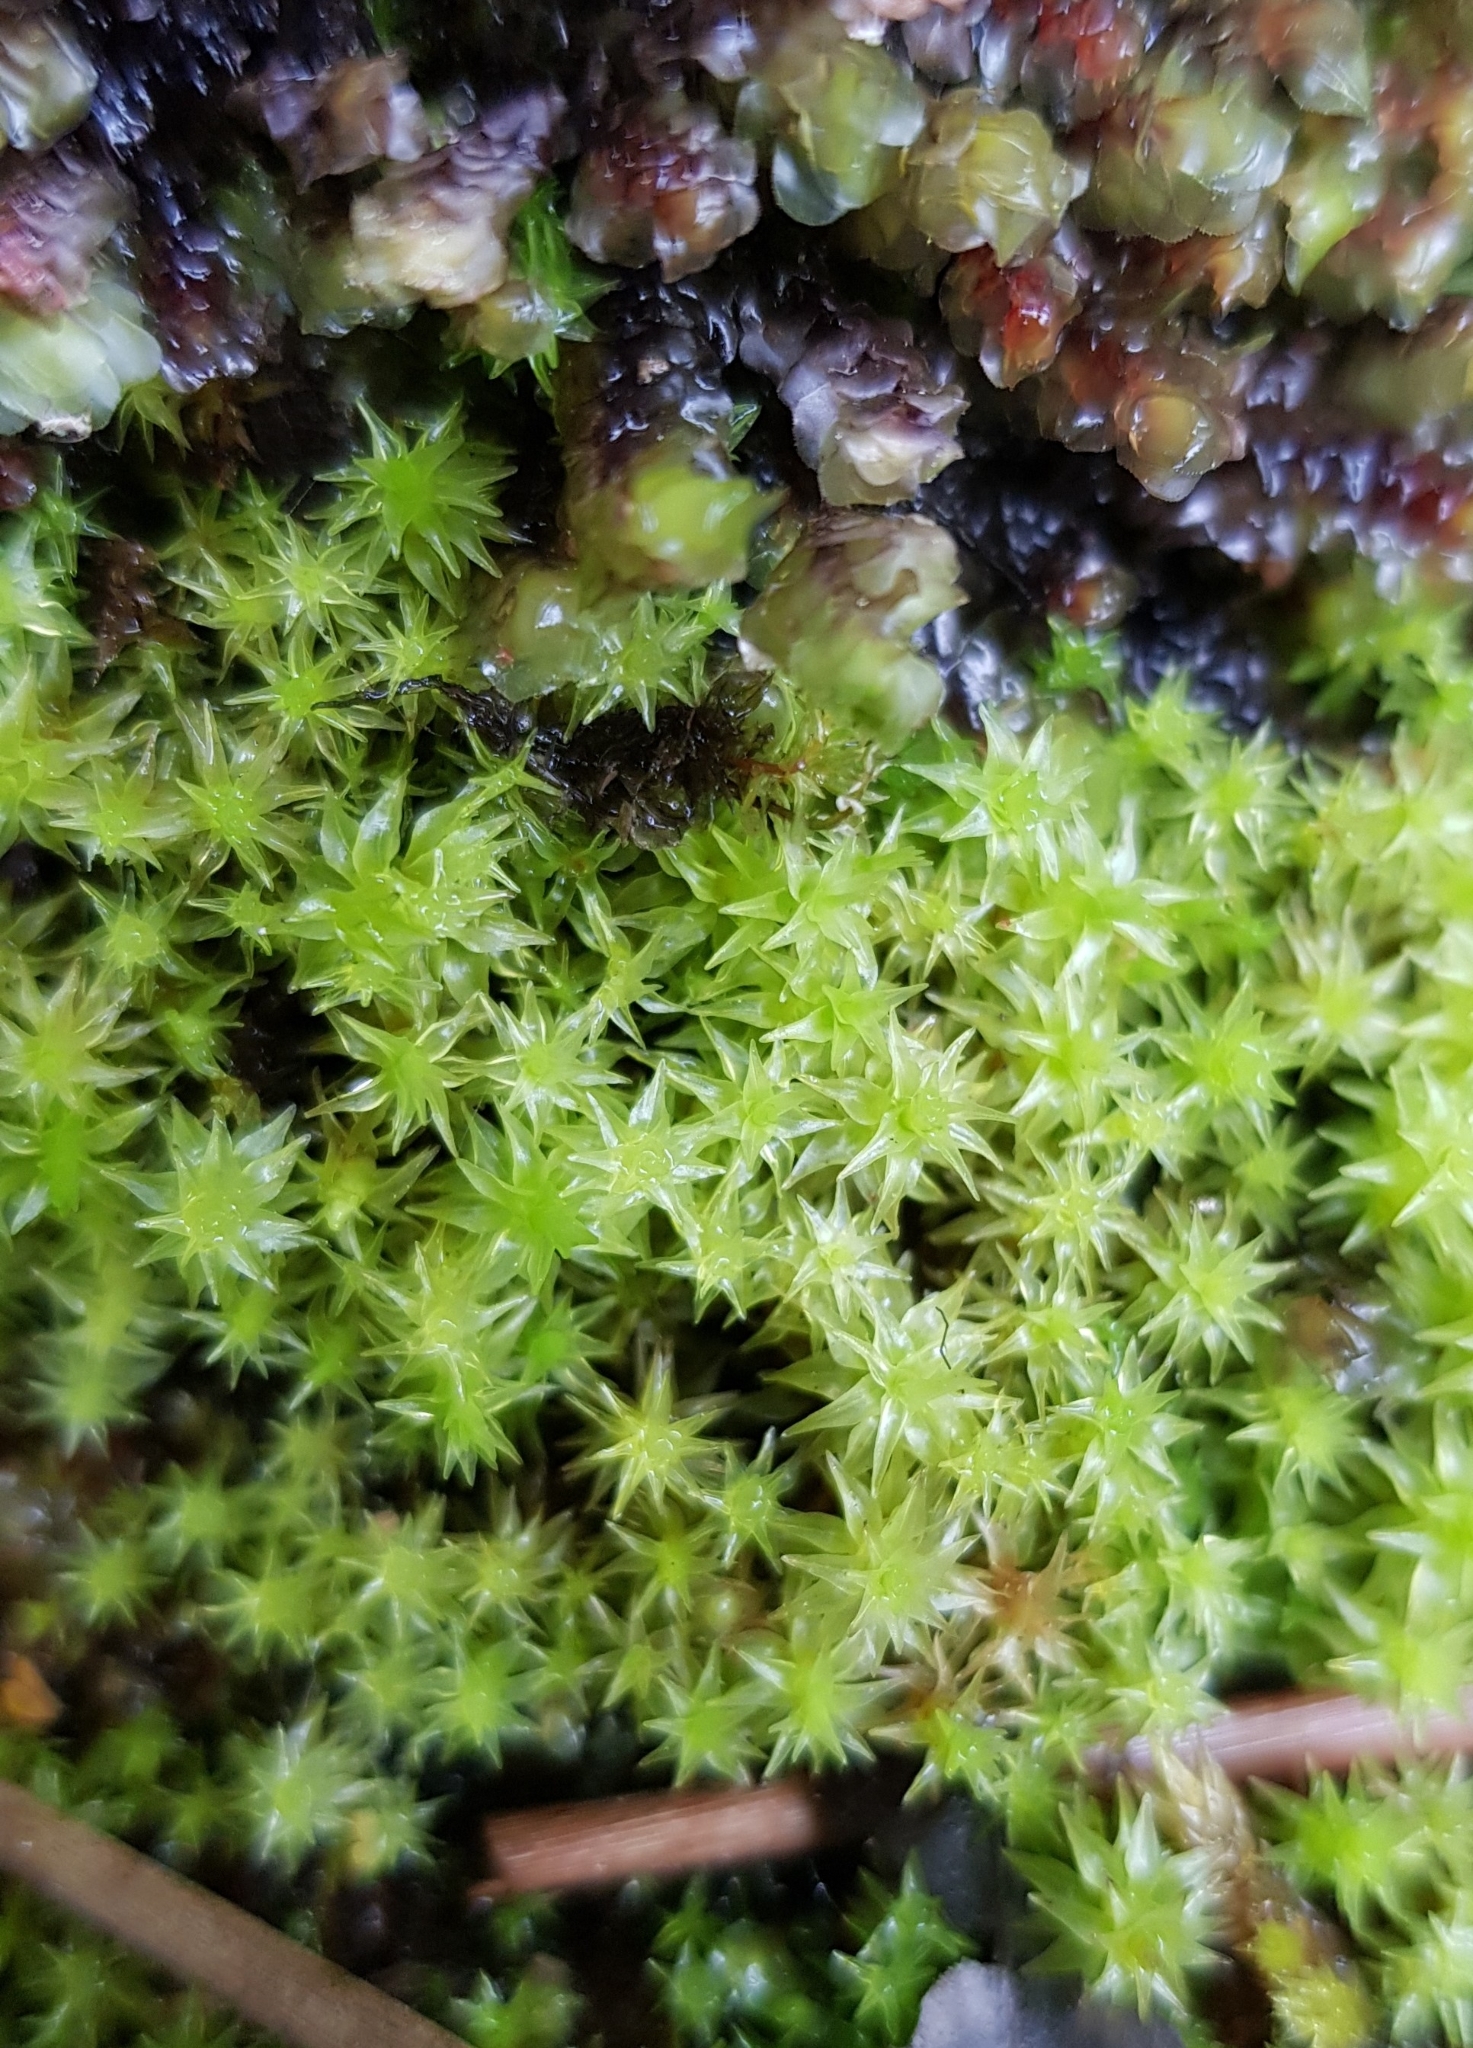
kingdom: Plantae
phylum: Bryophyta
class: Bryopsida
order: Dicranales
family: Aongstroemiaceae
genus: Diobelonella
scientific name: Diobelonella palustris
